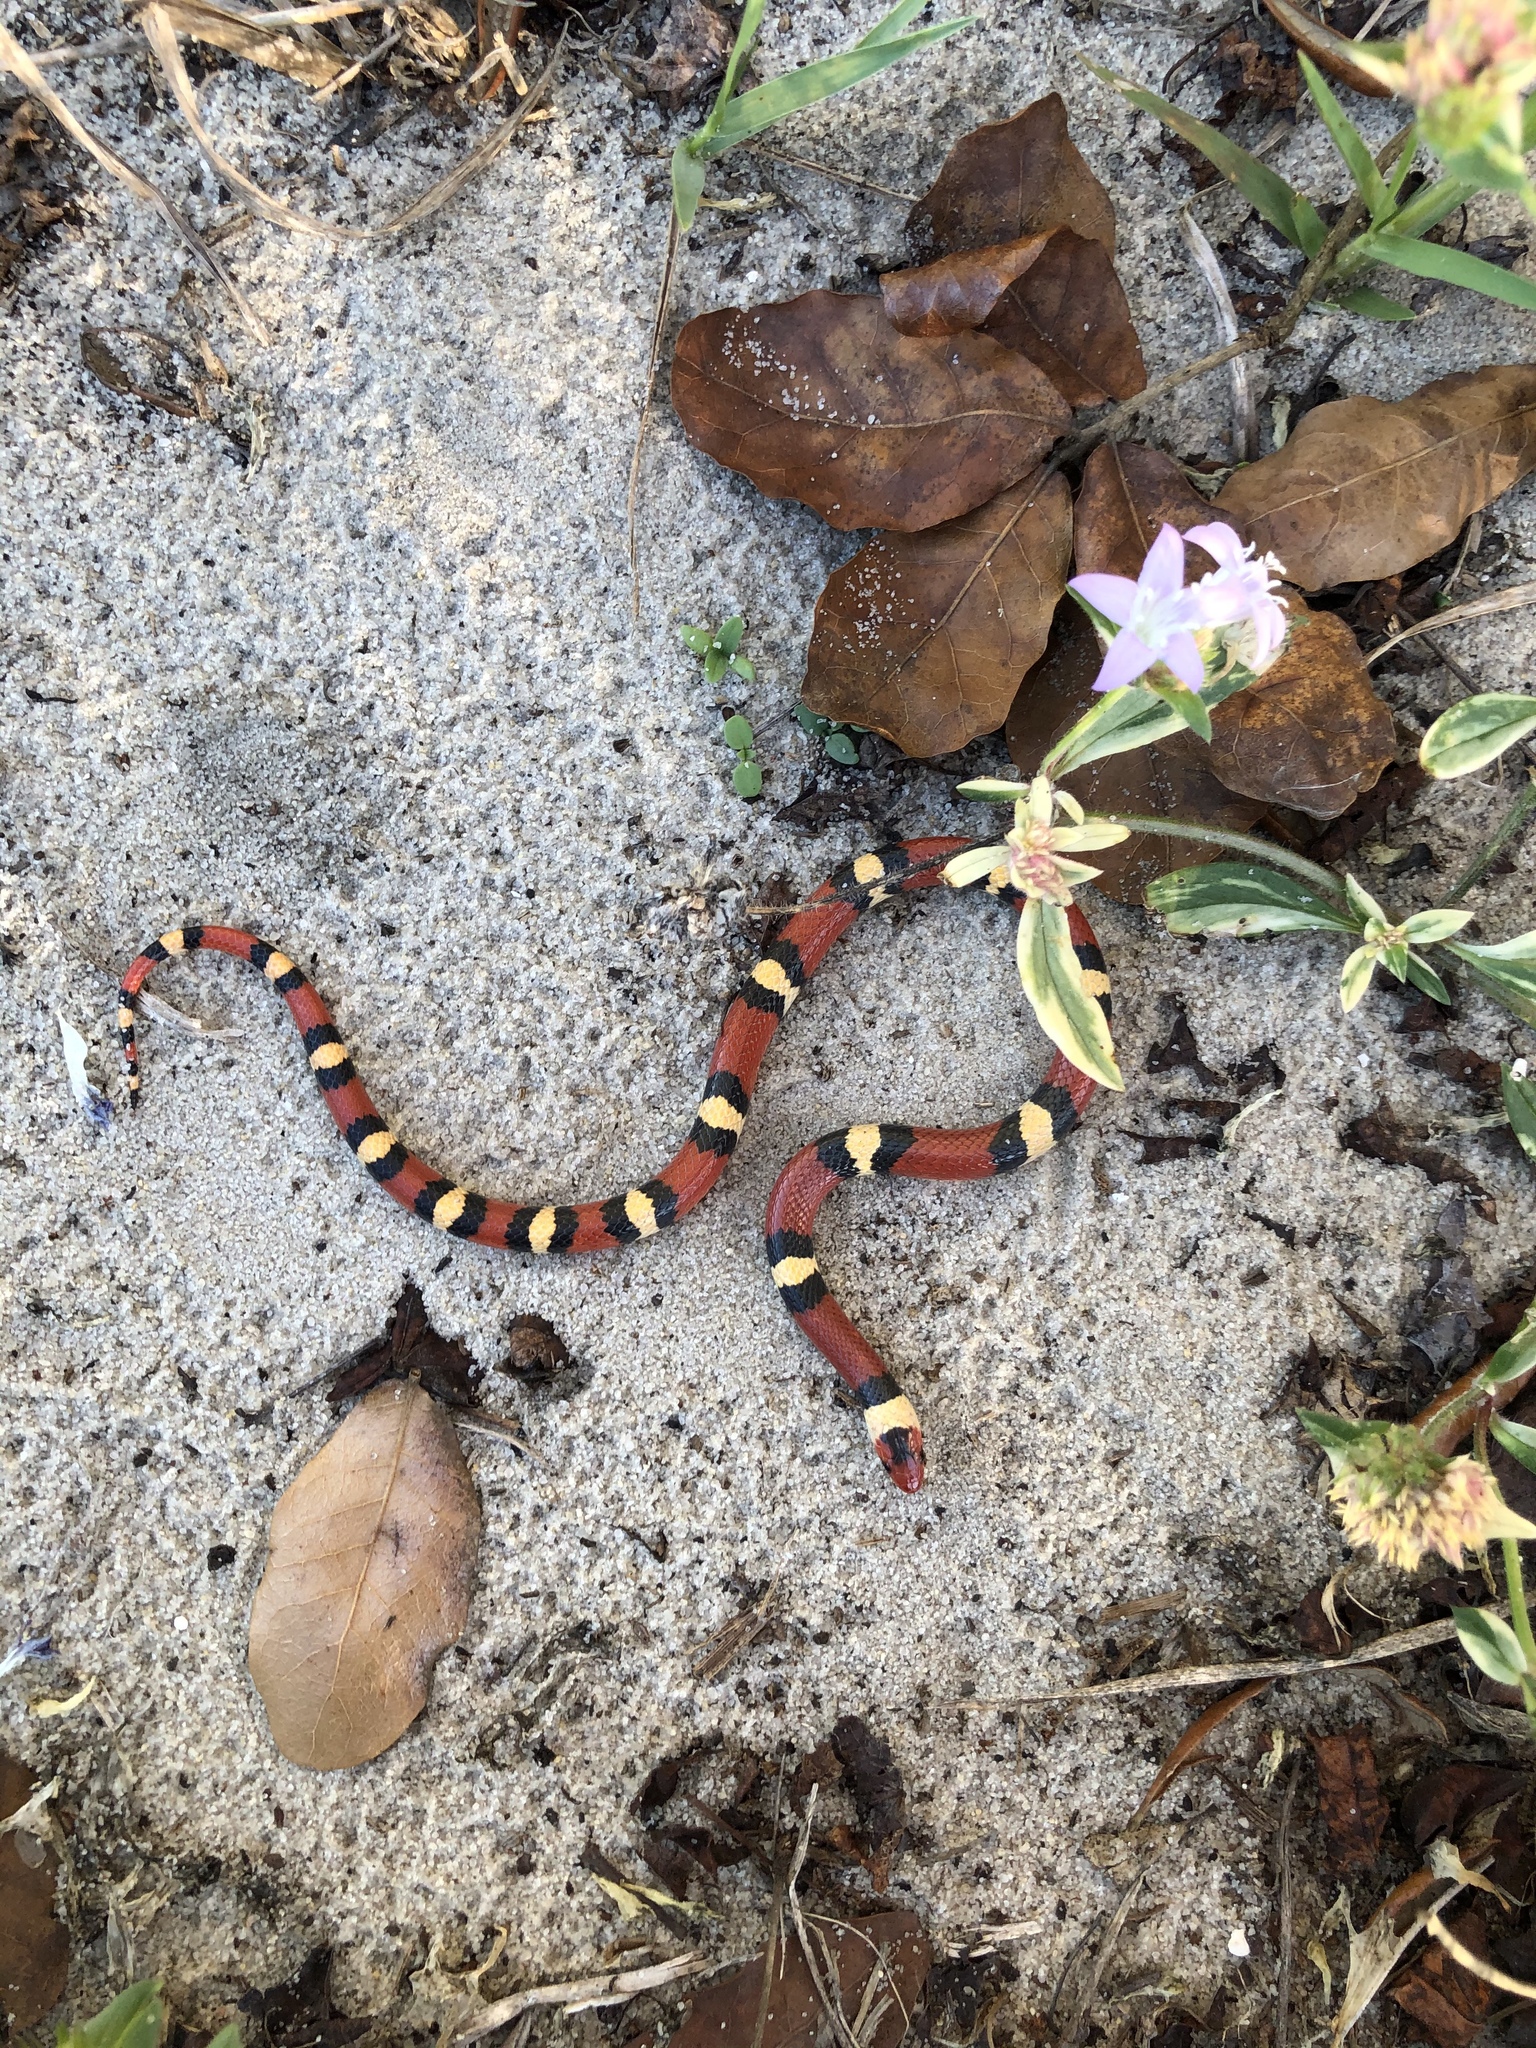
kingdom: Animalia
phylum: Chordata
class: Squamata
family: Colubridae
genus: Lampropeltis
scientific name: Lampropeltis elapsoides
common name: Scarlet kingsnake
